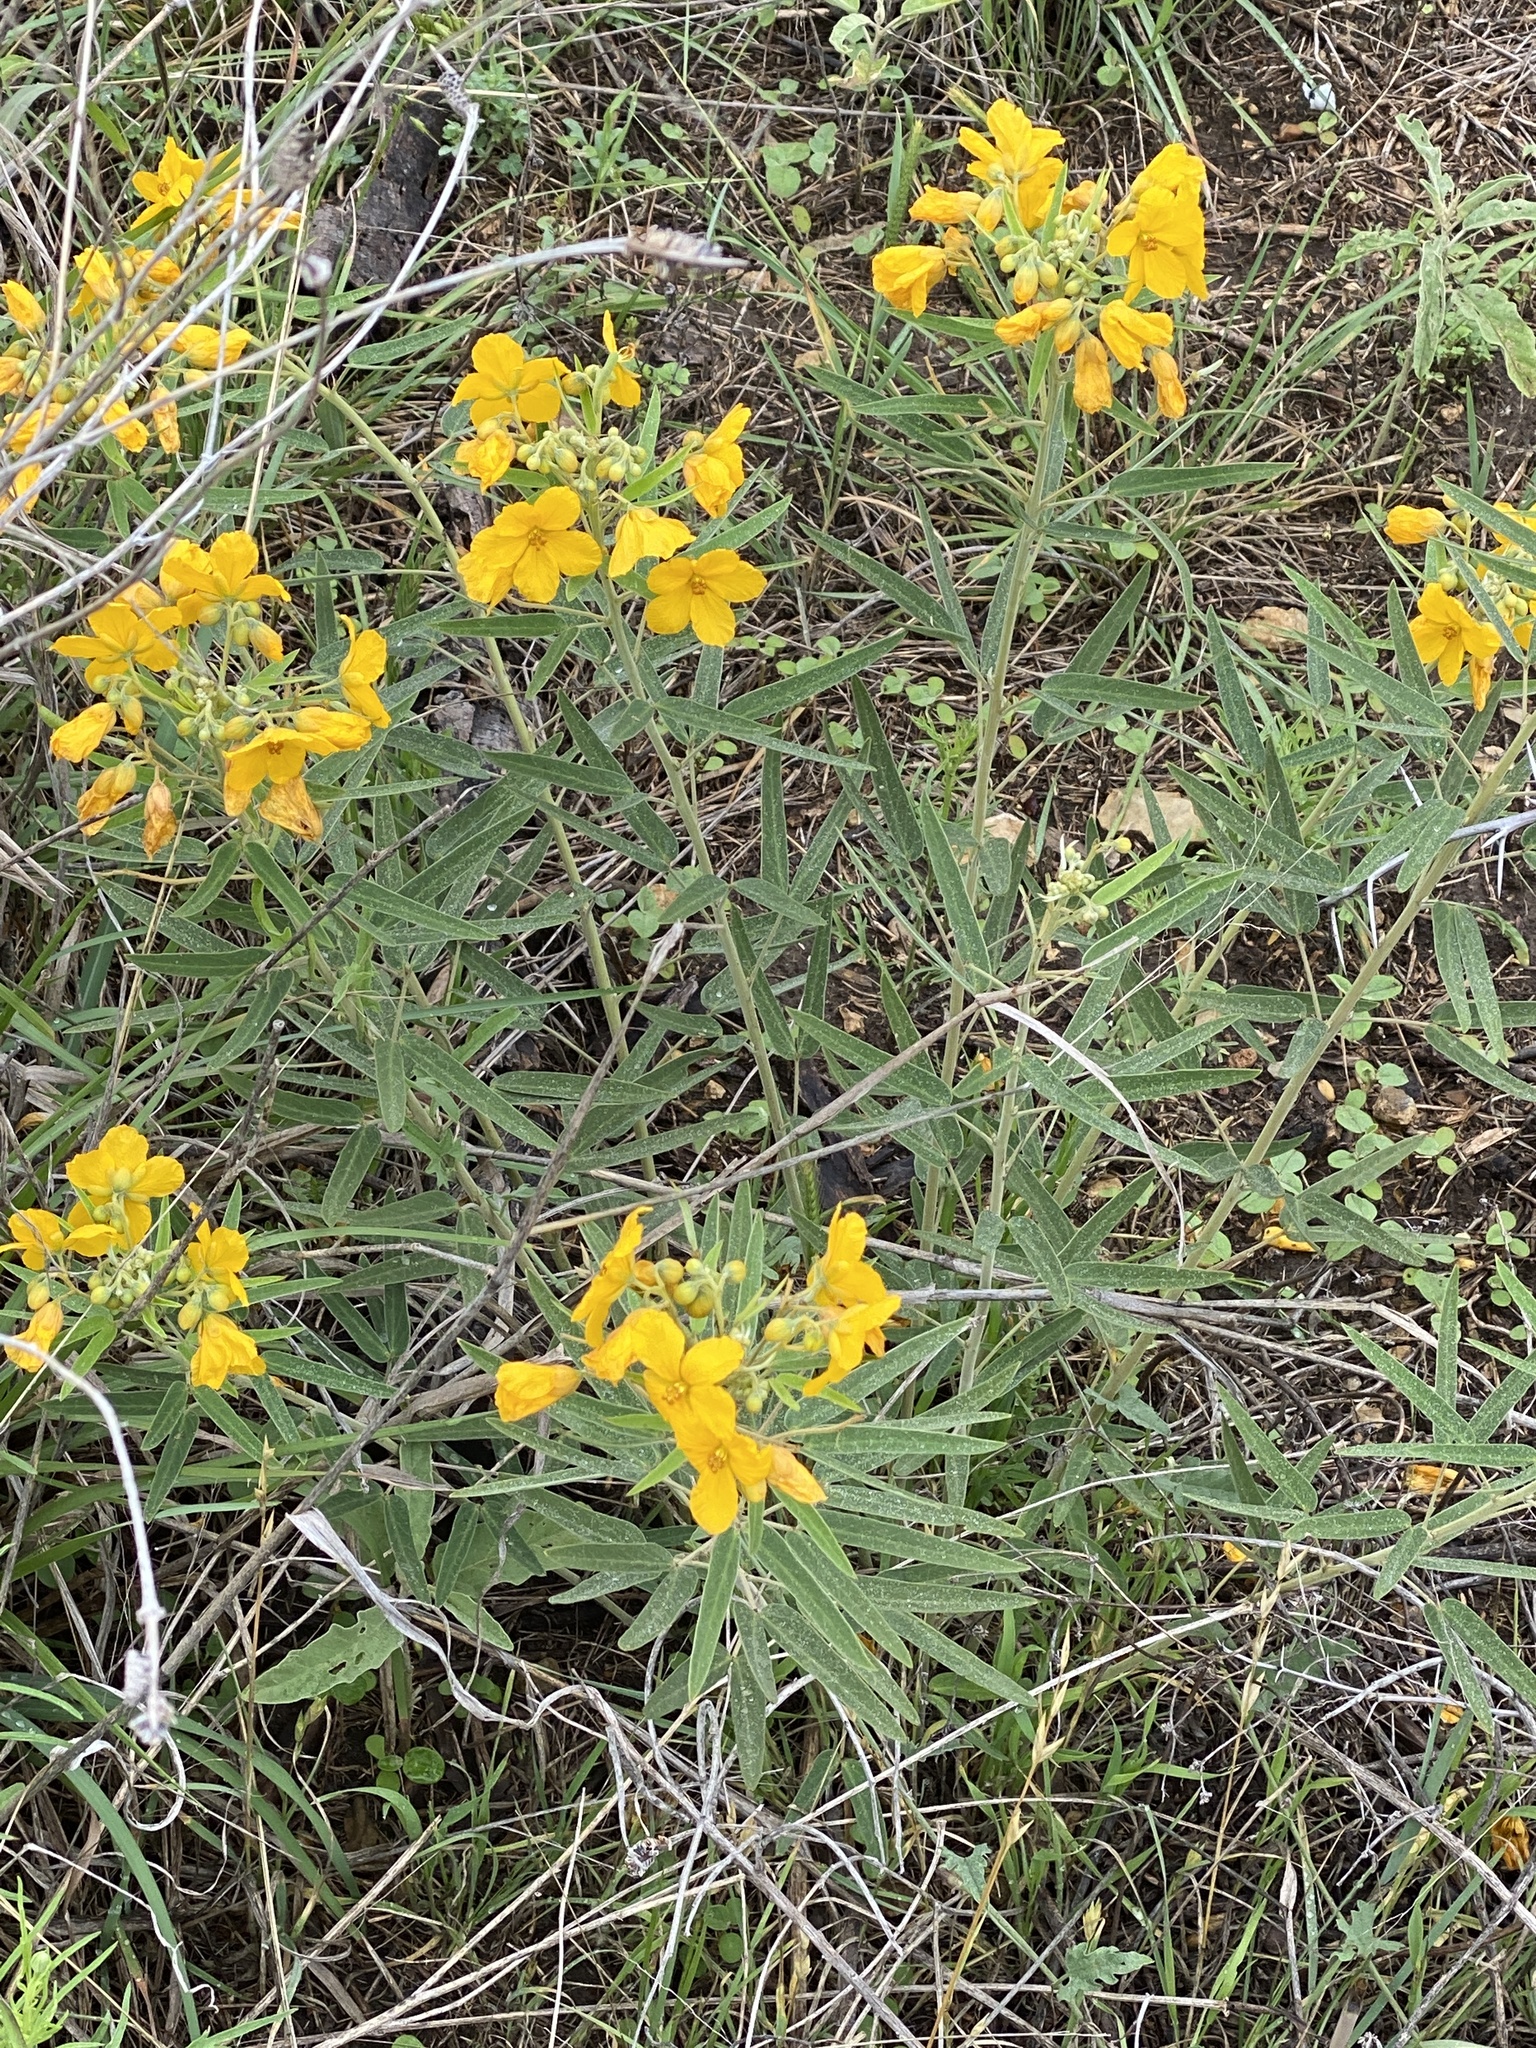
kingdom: Plantae
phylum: Tracheophyta
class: Magnoliopsida
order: Fabales
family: Fabaceae
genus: Senna
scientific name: Senna roemeriana
